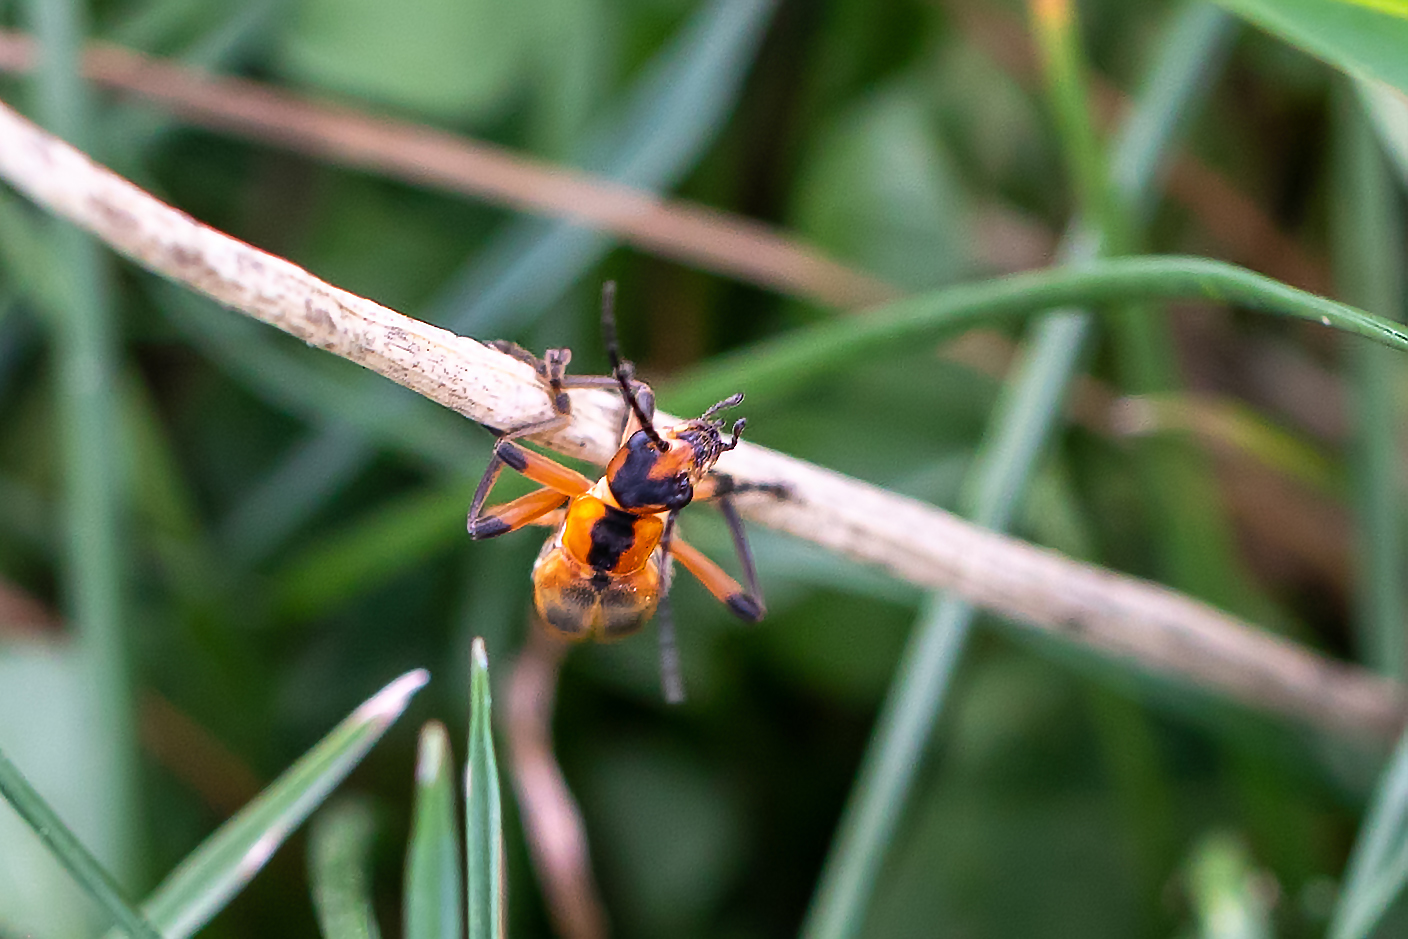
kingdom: Animalia
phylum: Arthropoda
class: Insecta
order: Coleoptera
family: Cantharidae
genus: Chauliognathus
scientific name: Chauliognathus marginatus
